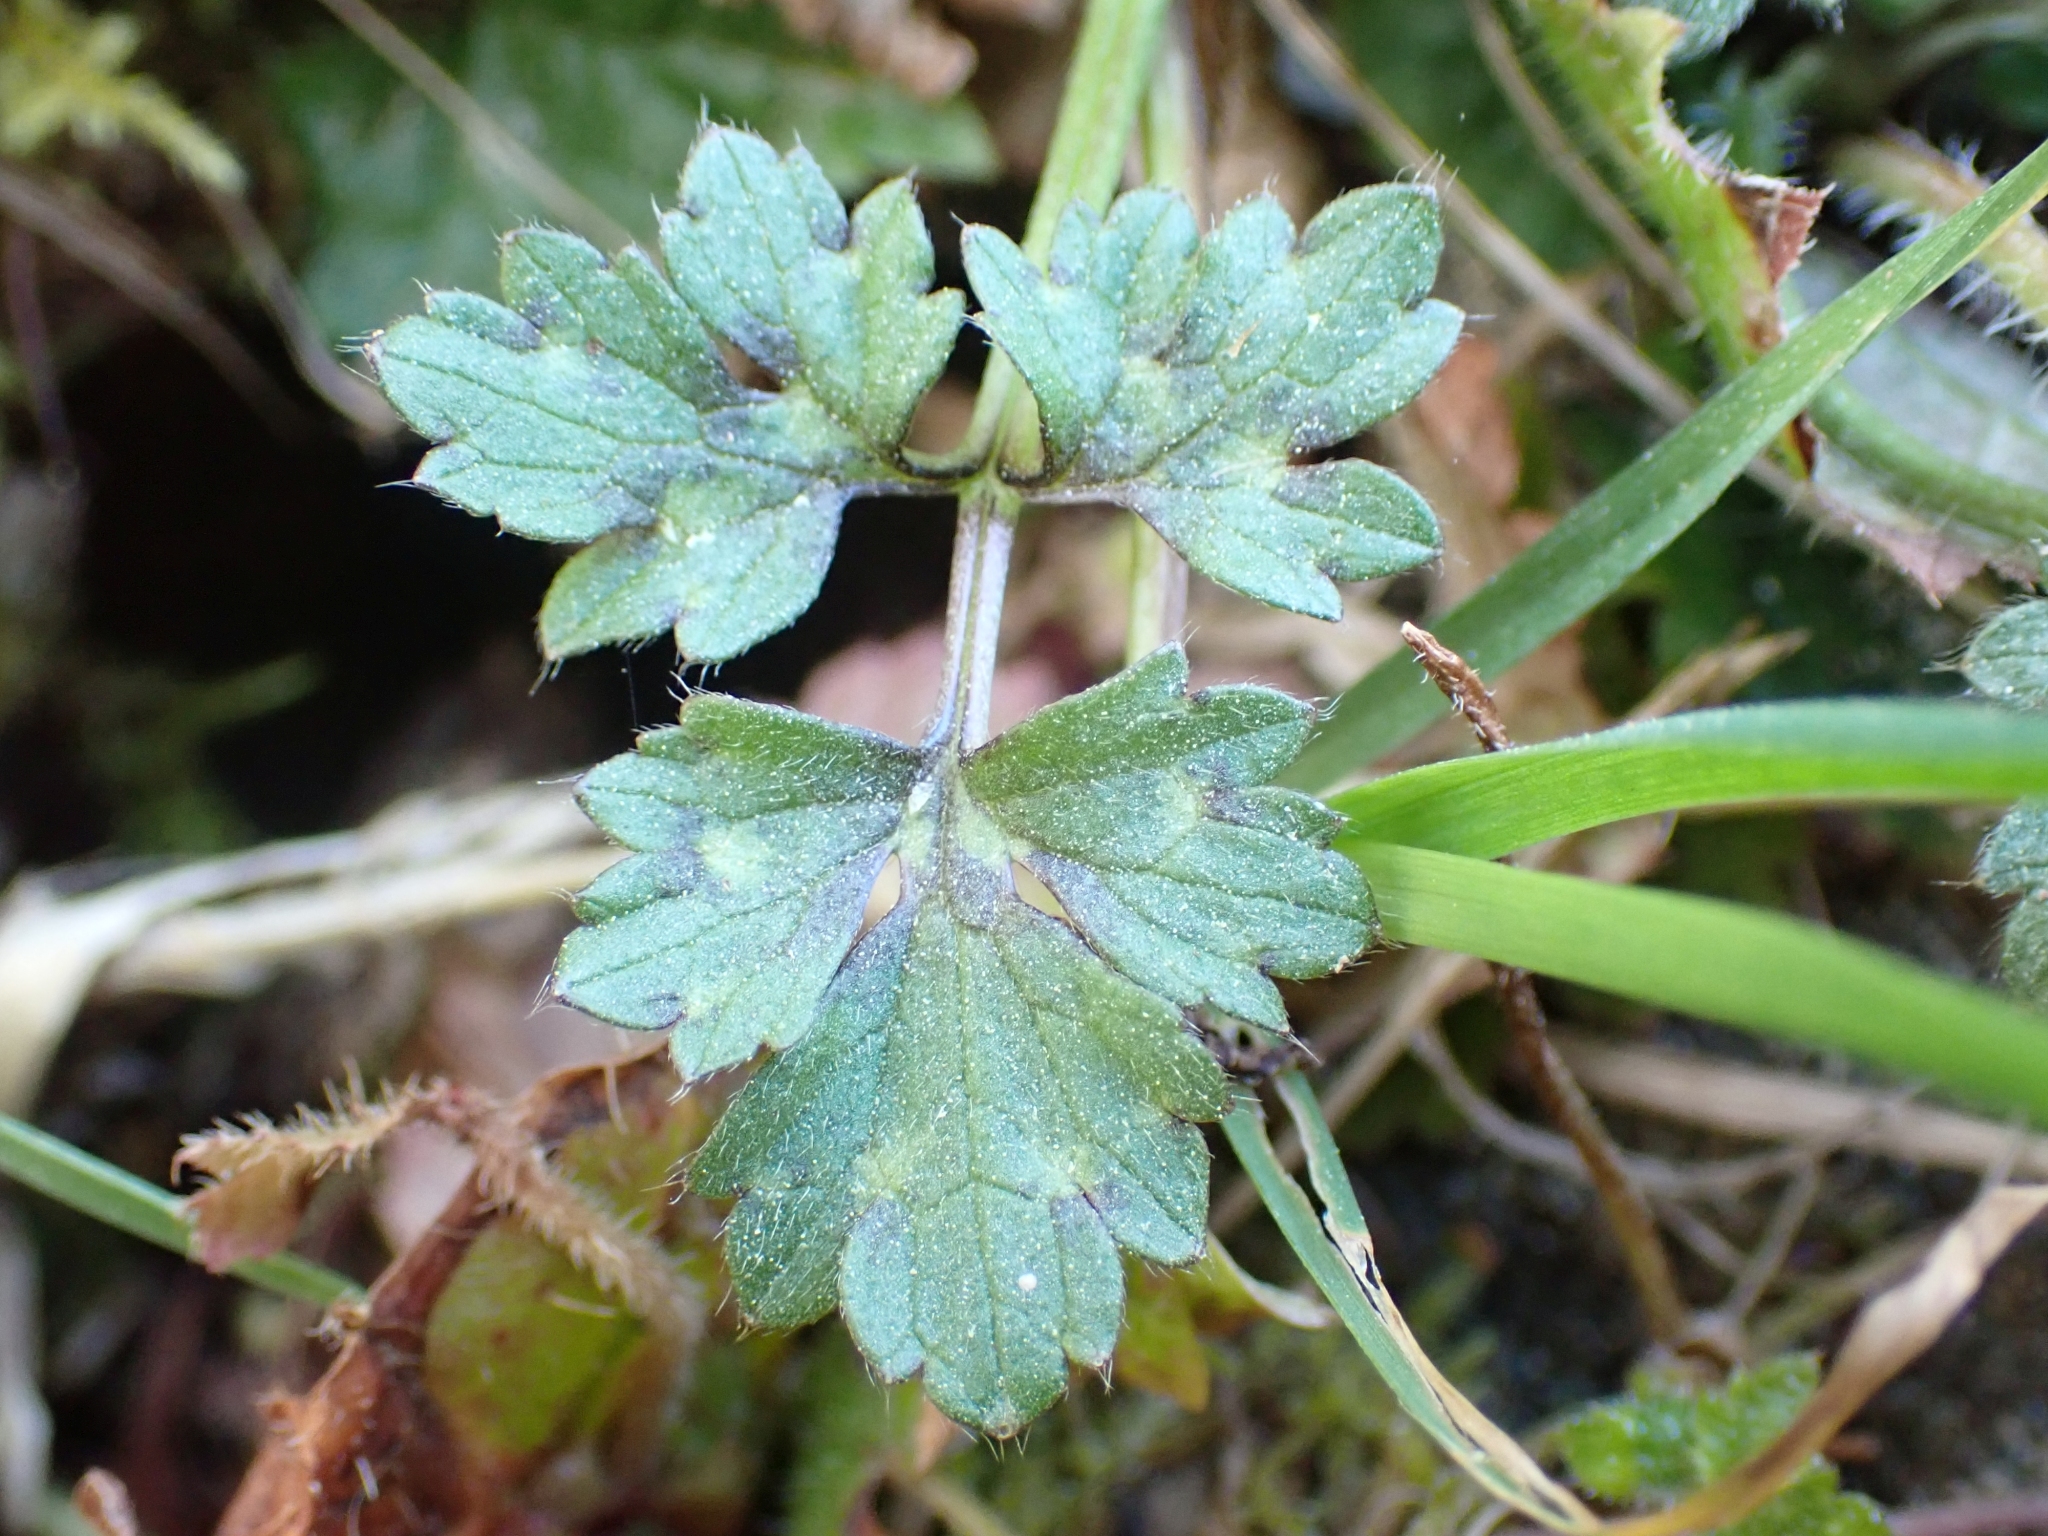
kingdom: Plantae
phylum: Tracheophyta
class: Magnoliopsida
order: Ranunculales
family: Ranunculaceae
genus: Ranunculus
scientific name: Ranunculus repens
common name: Creeping buttercup
